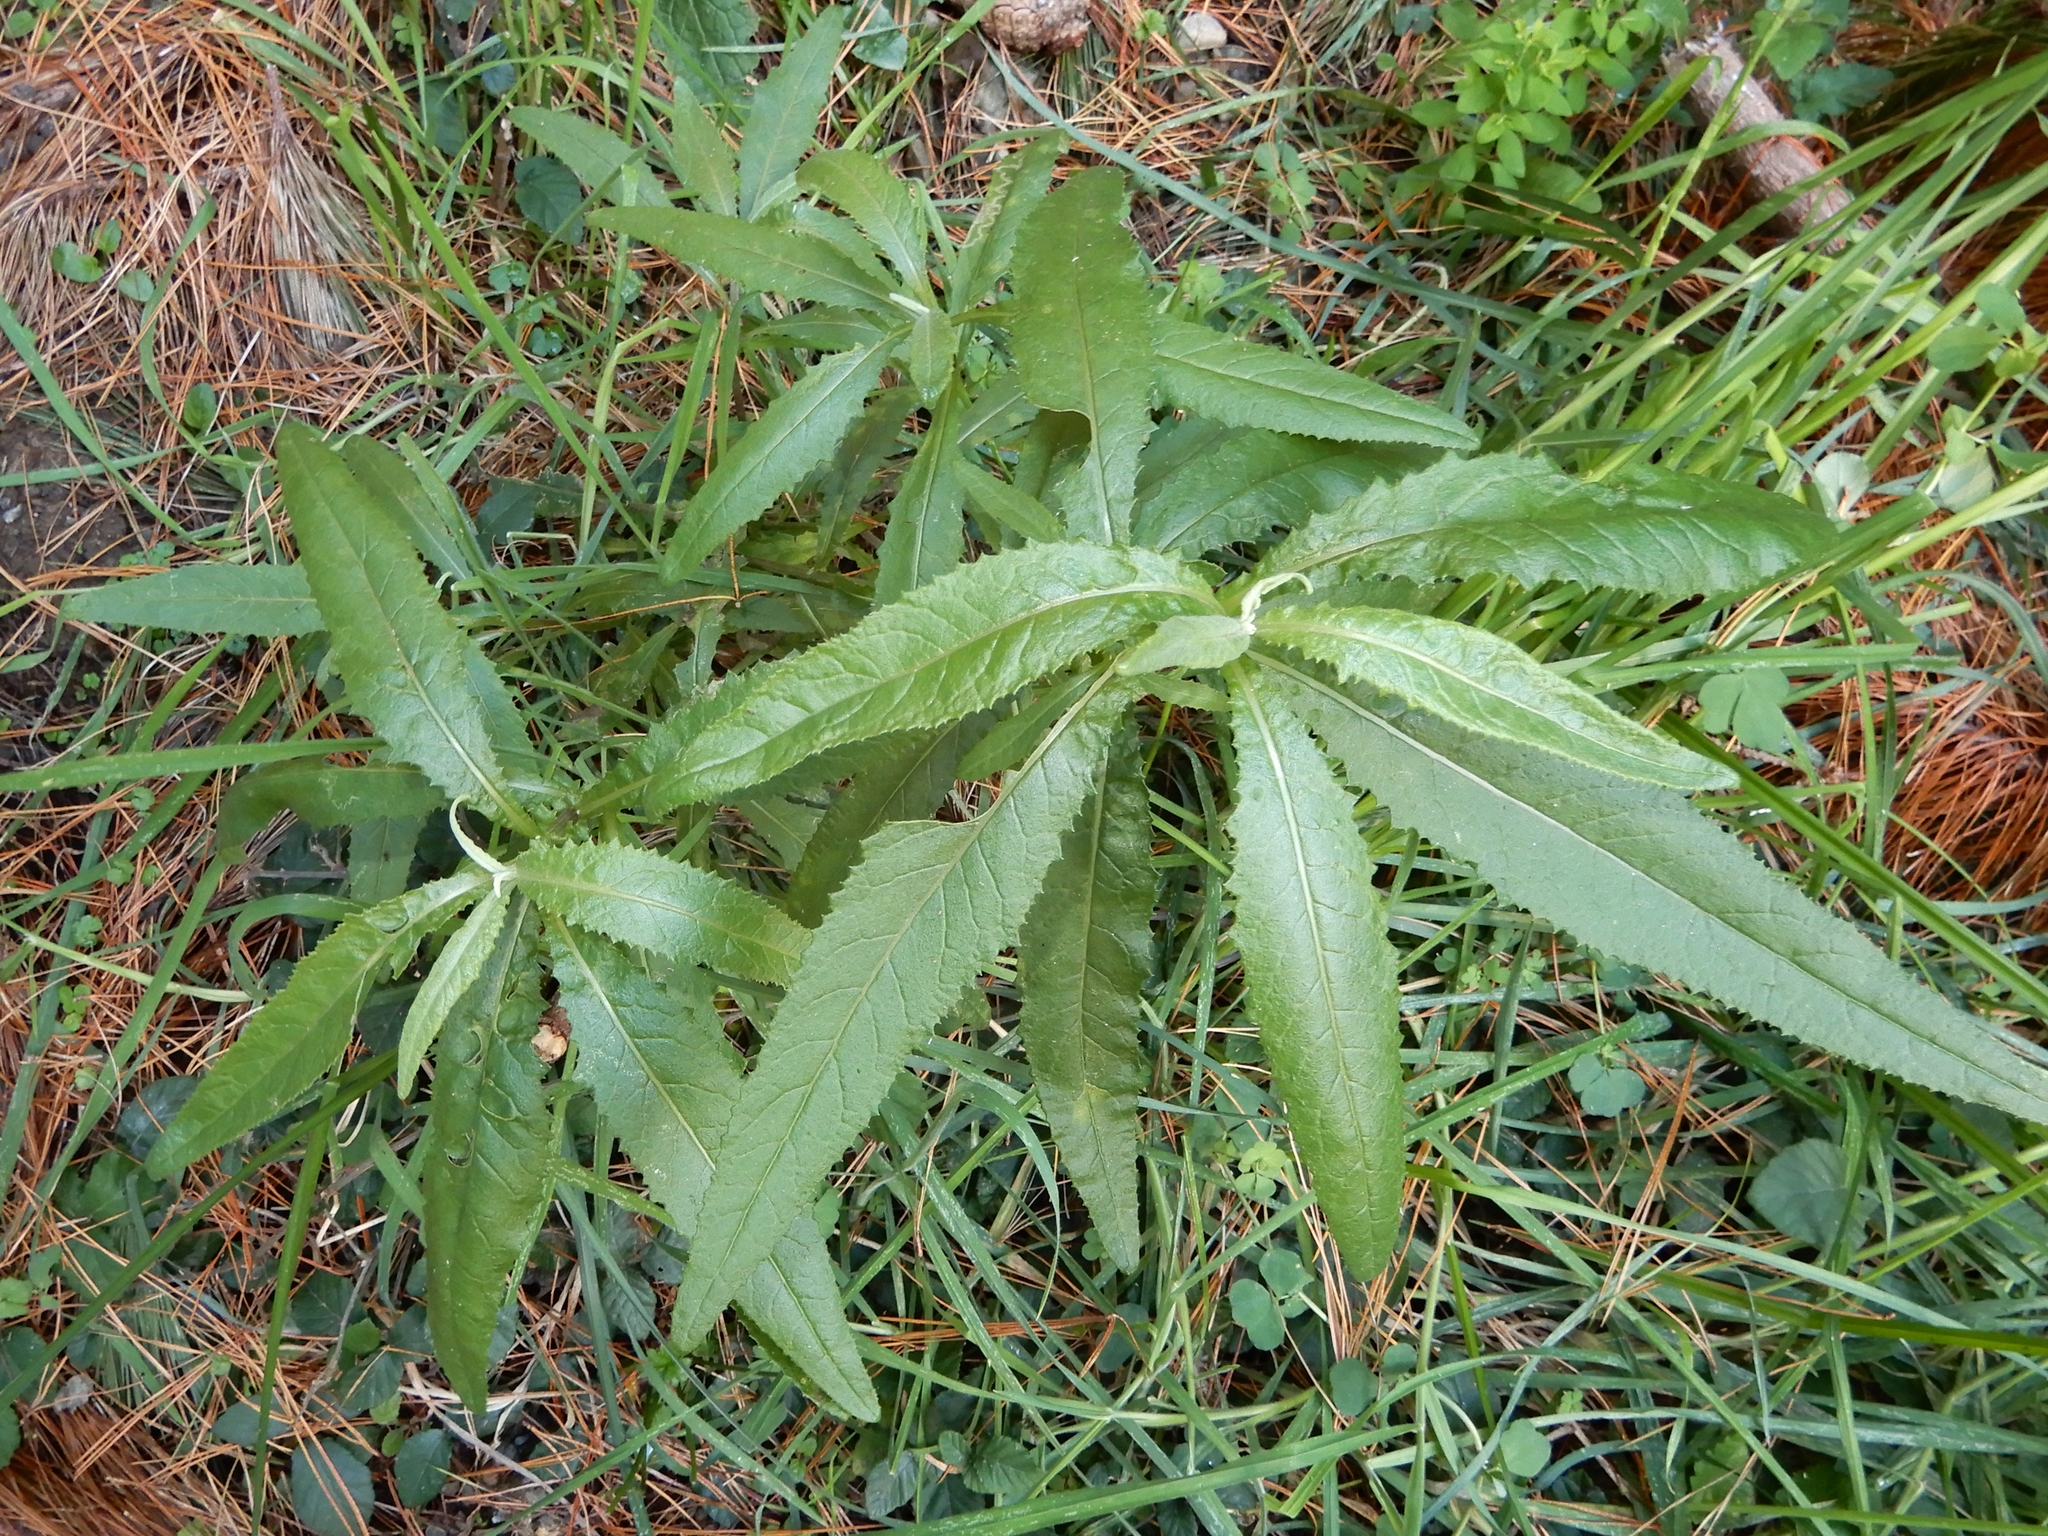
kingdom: Plantae
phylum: Tracheophyta
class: Magnoliopsida
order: Asterales
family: Asteraceae
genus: Senecio
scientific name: Senecio minimus
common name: Toothed fireweed
